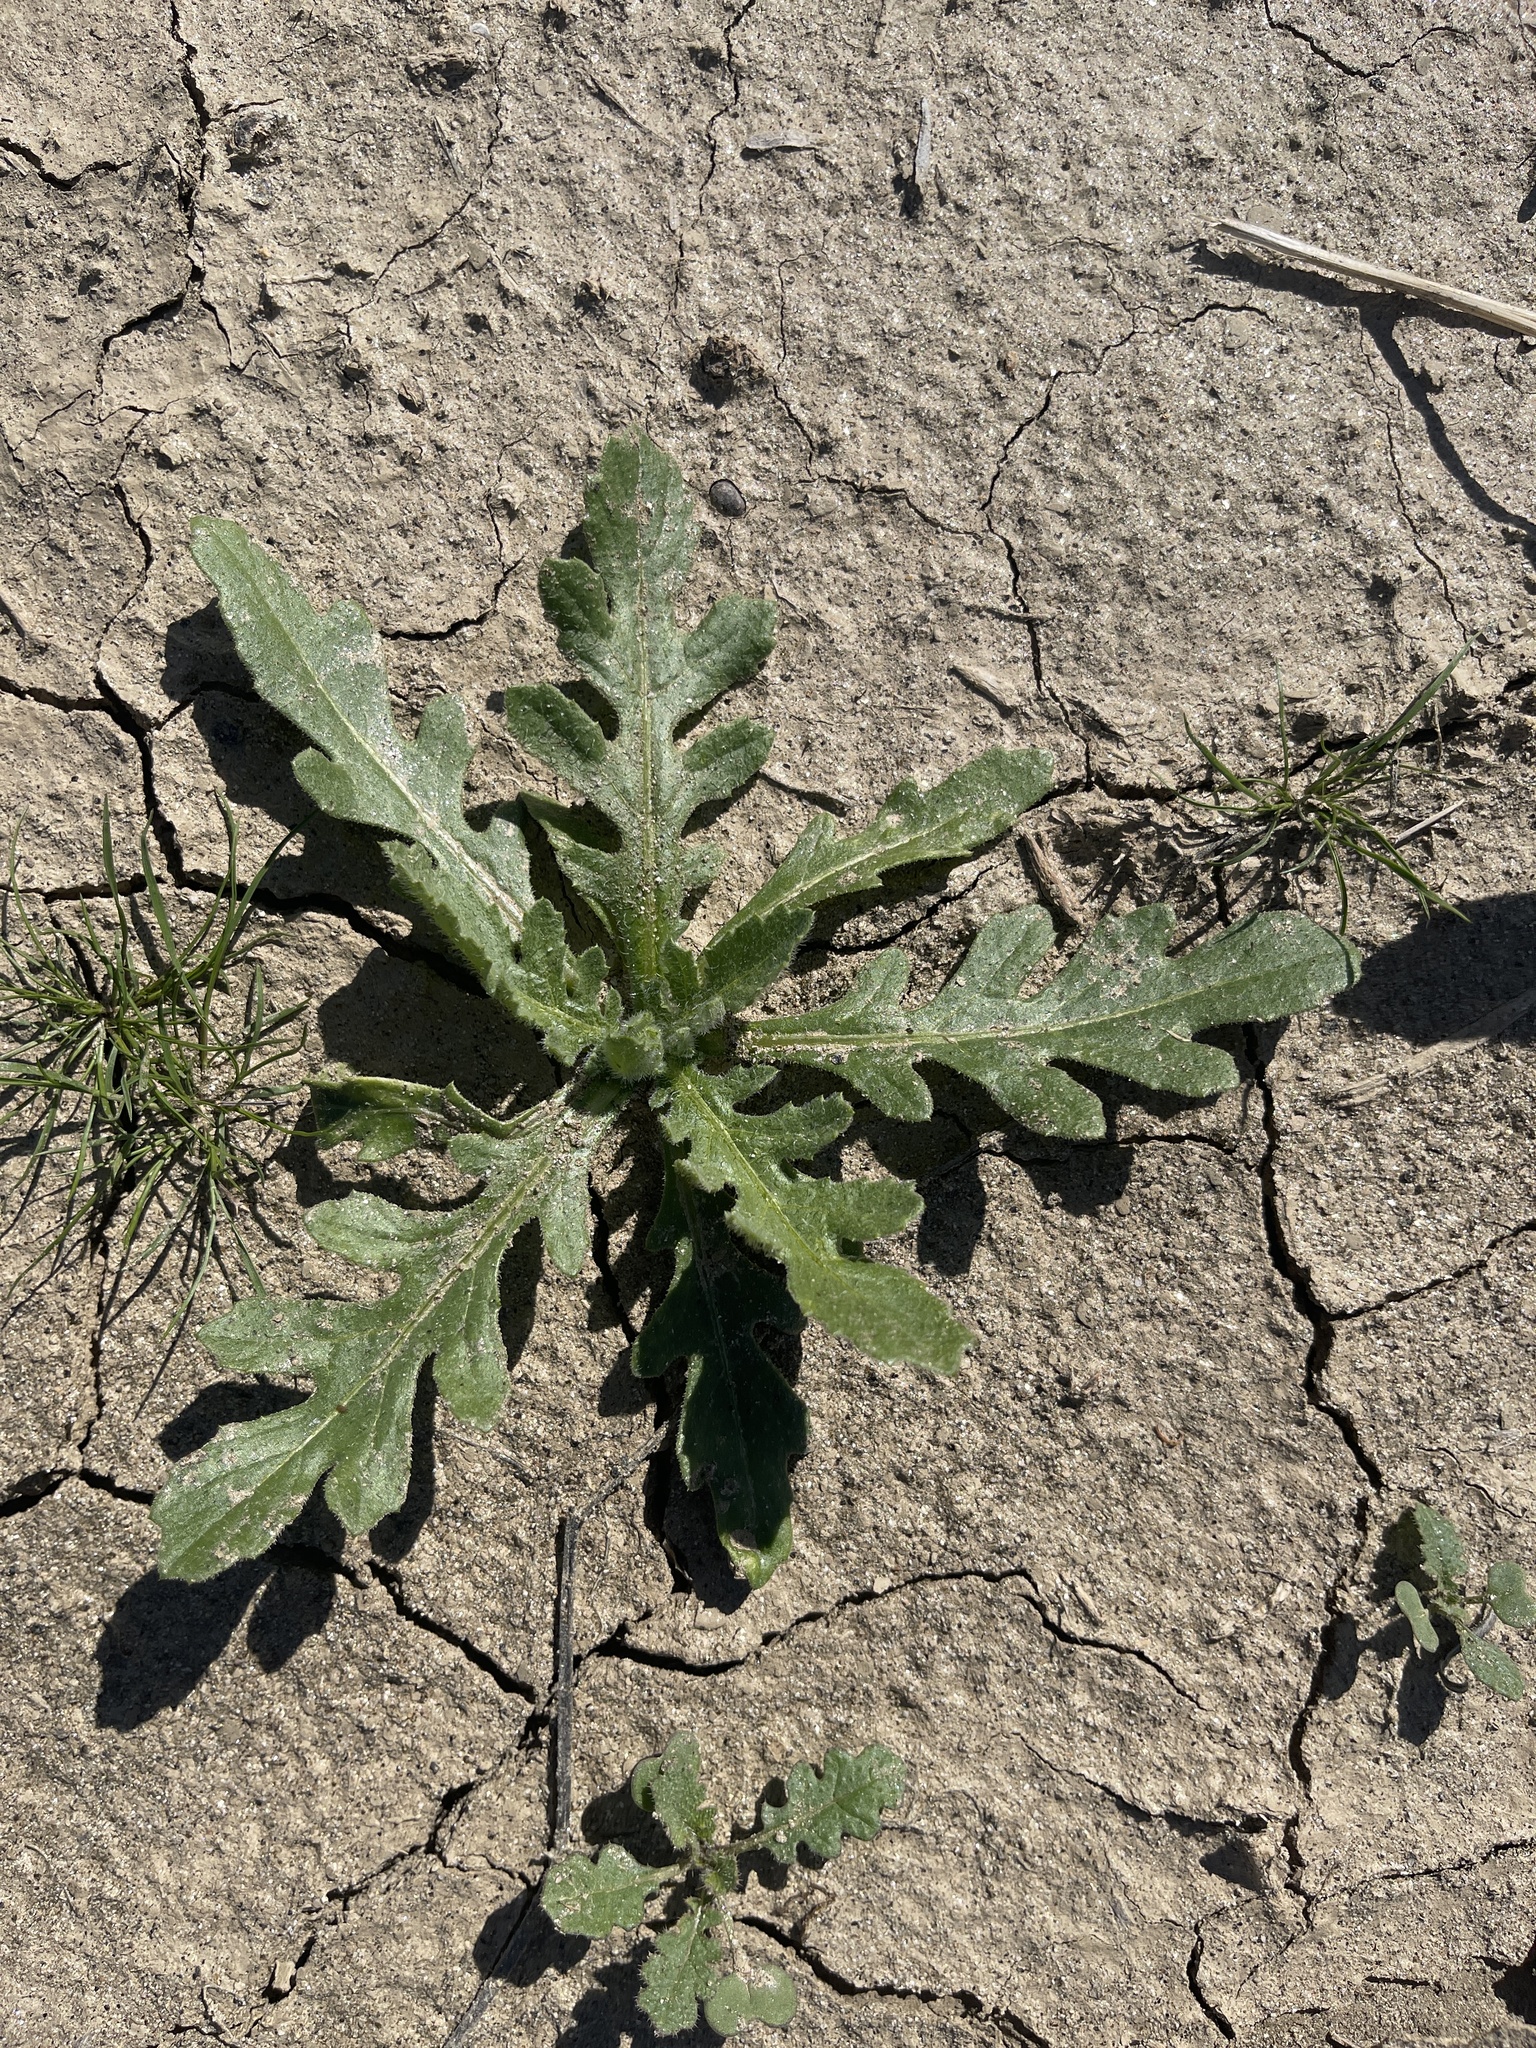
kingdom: Plantae
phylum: Tracheophyta
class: Magnoliopsida
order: Asterales
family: Asteraceae
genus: Volutaria
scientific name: Volutaria tubuliflora
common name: Desert knapweed
